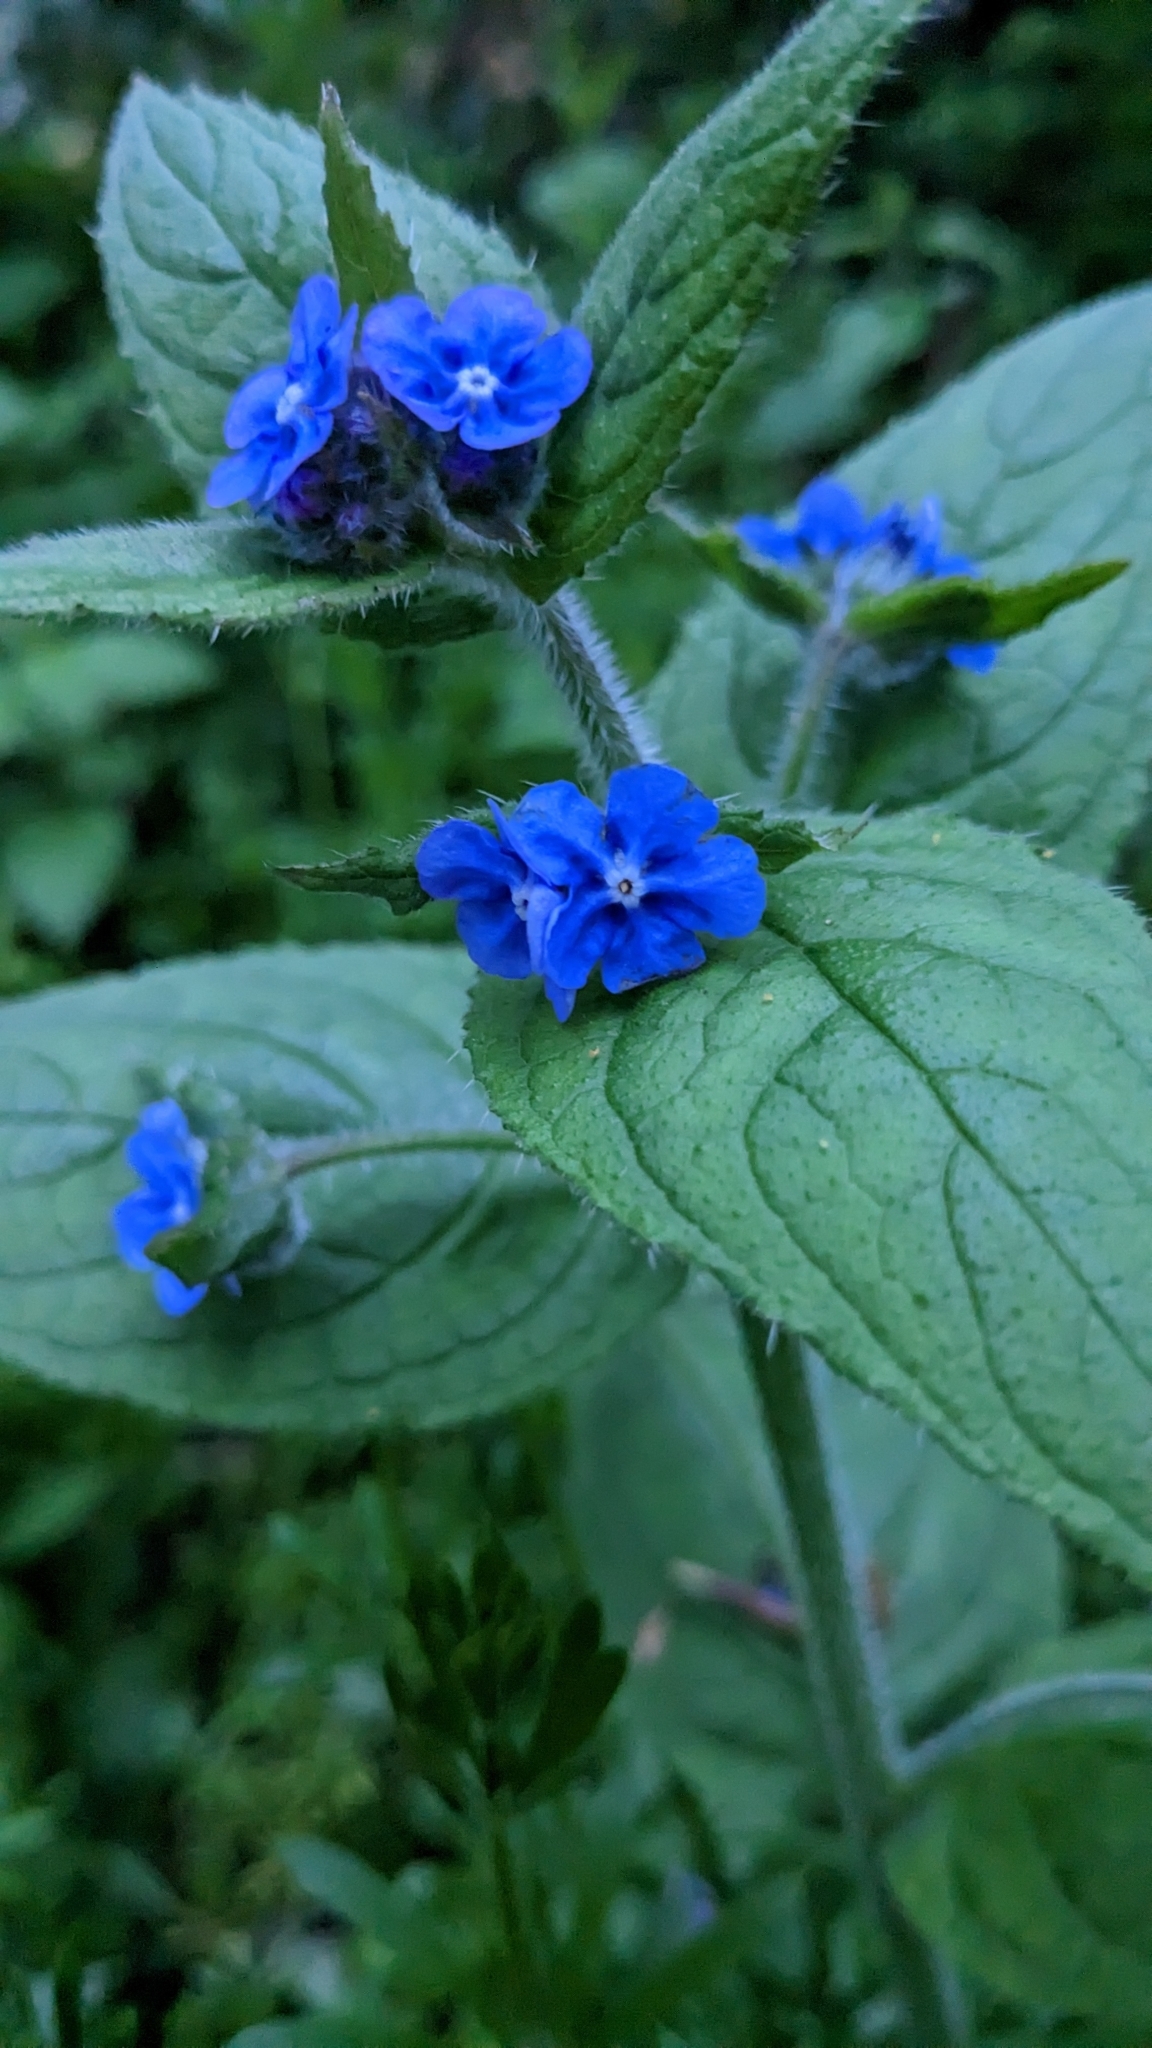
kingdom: Plantae
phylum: Tracheophyta
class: Magnoliopsida
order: Boraginales
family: Boraginaceae
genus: Pentaglottis
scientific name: Pentaglottis sempervirens
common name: Green alkanet
